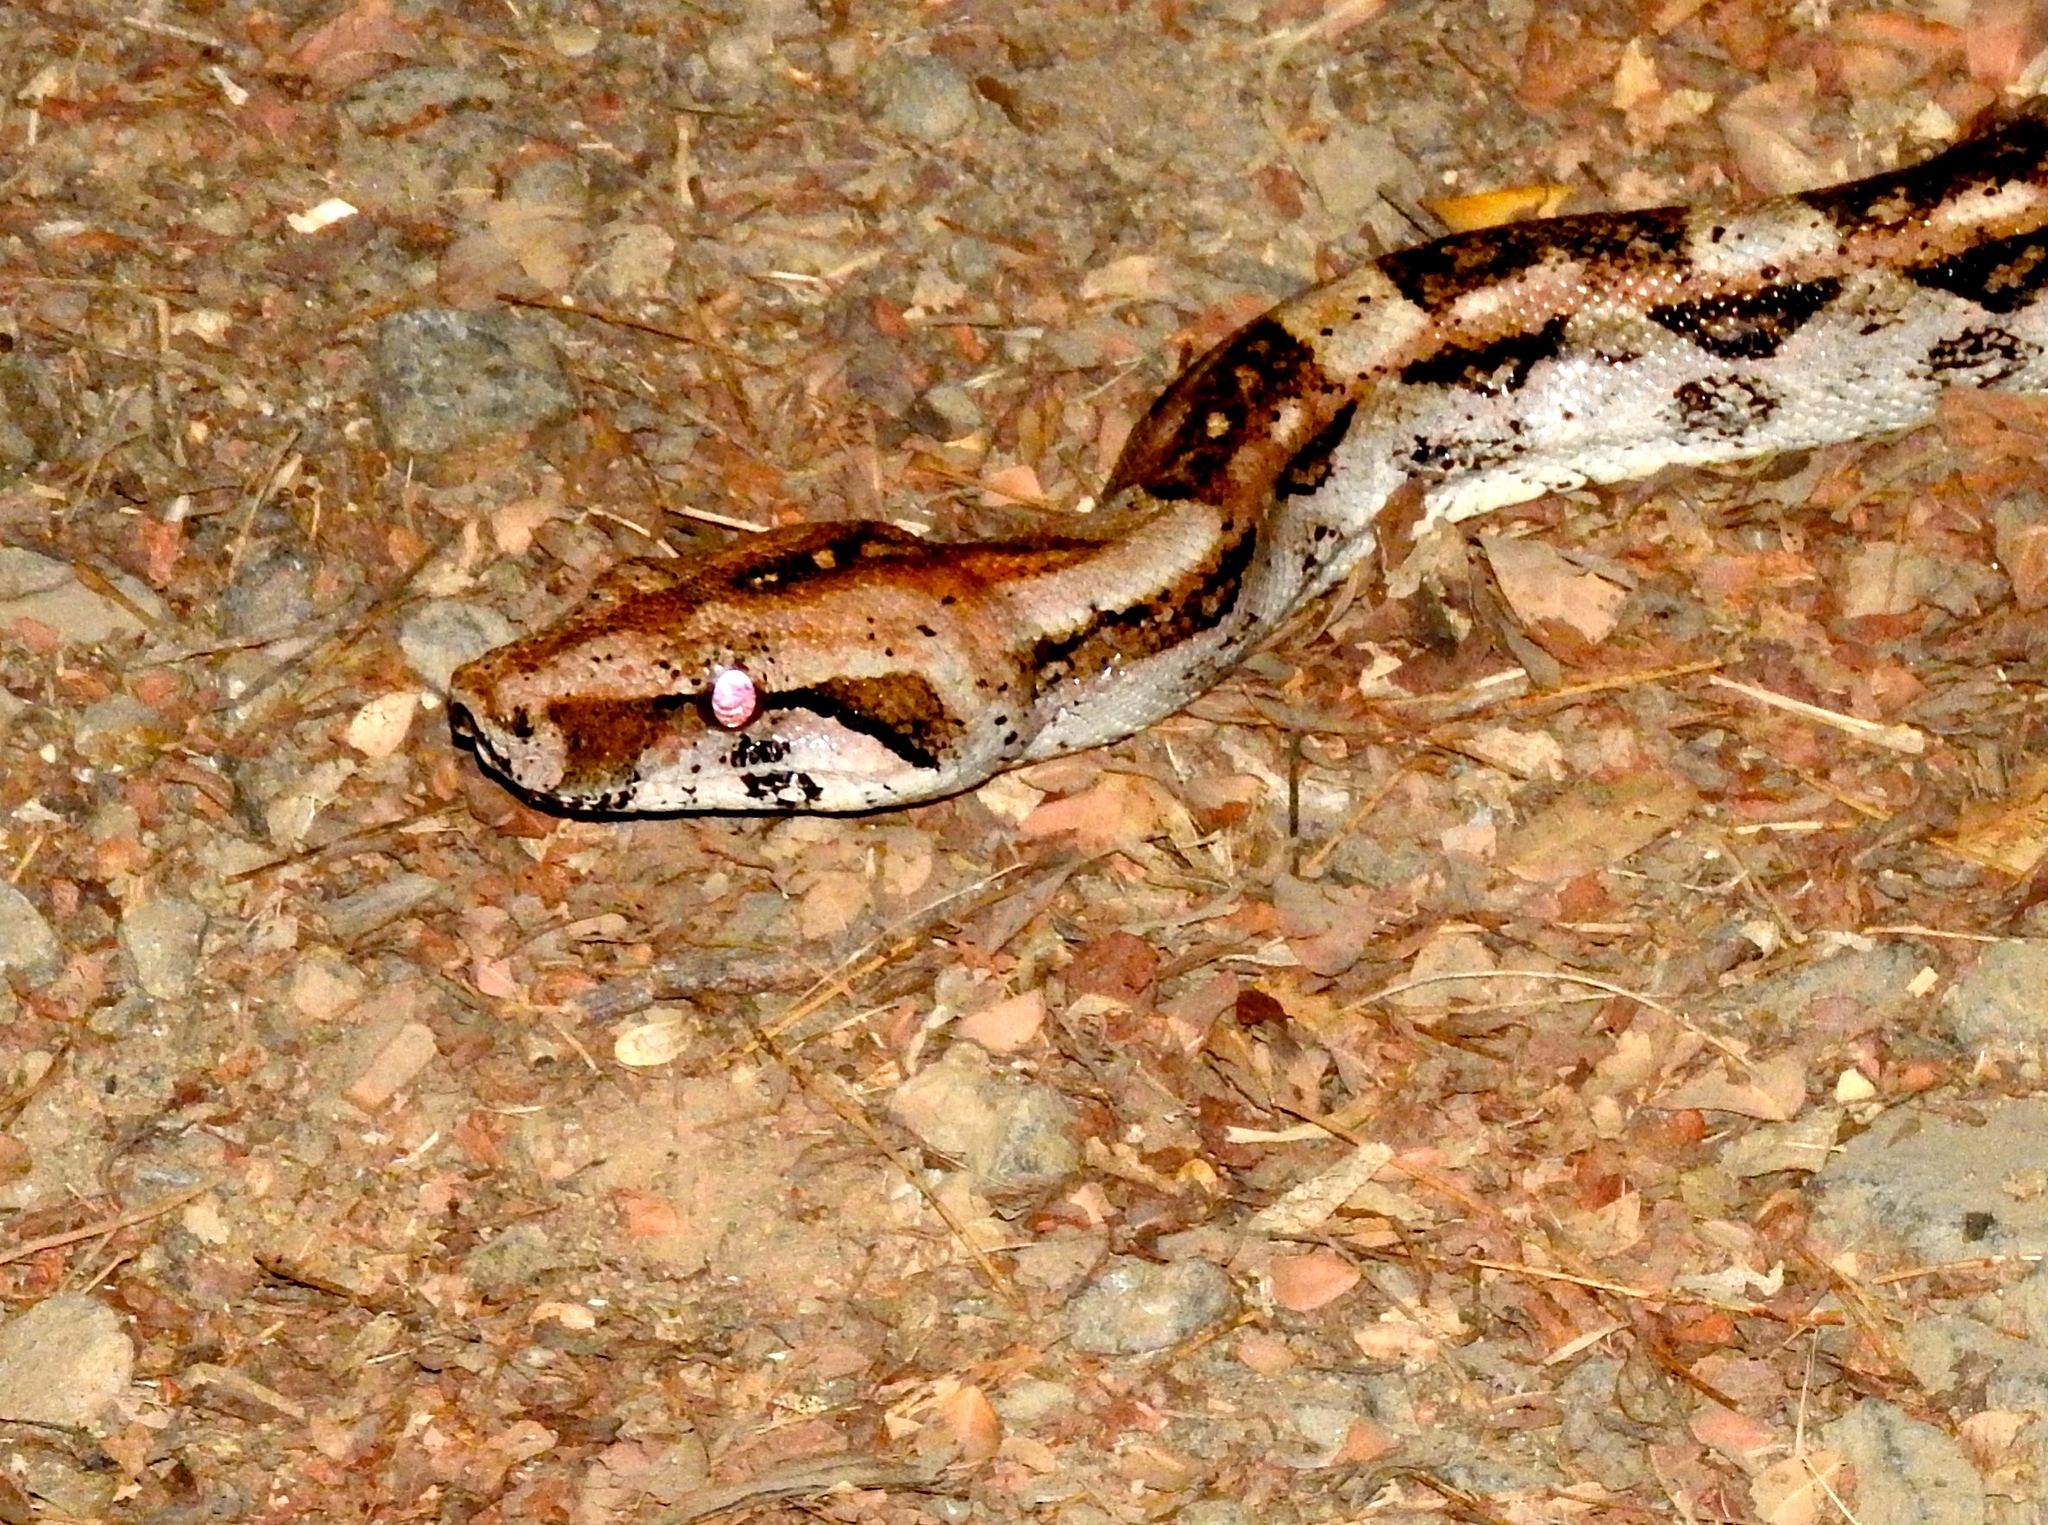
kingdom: Animalia
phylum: Chordata
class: Squamata
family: Boidae
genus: Boa
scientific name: Boa
